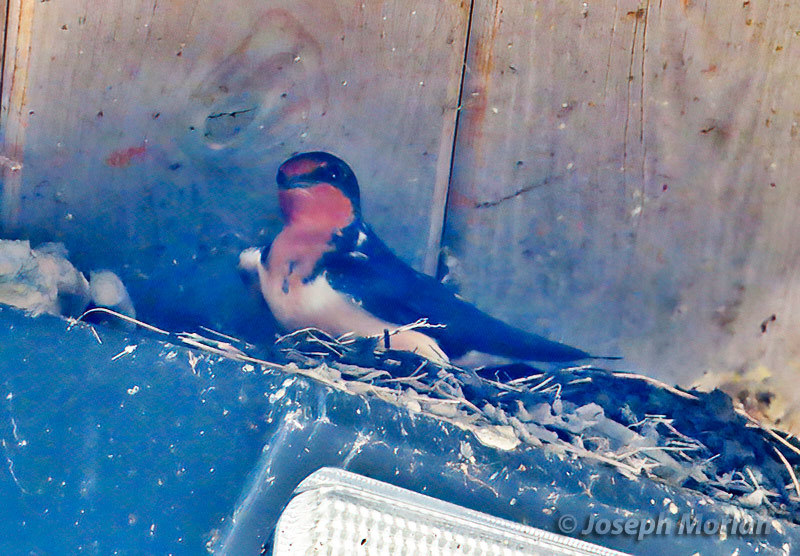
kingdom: Animalia
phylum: Chordata
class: Aves
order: Passeriformes
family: Hirundinidae
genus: Hirundo
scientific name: Hirundo rustica
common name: Barn swallow
